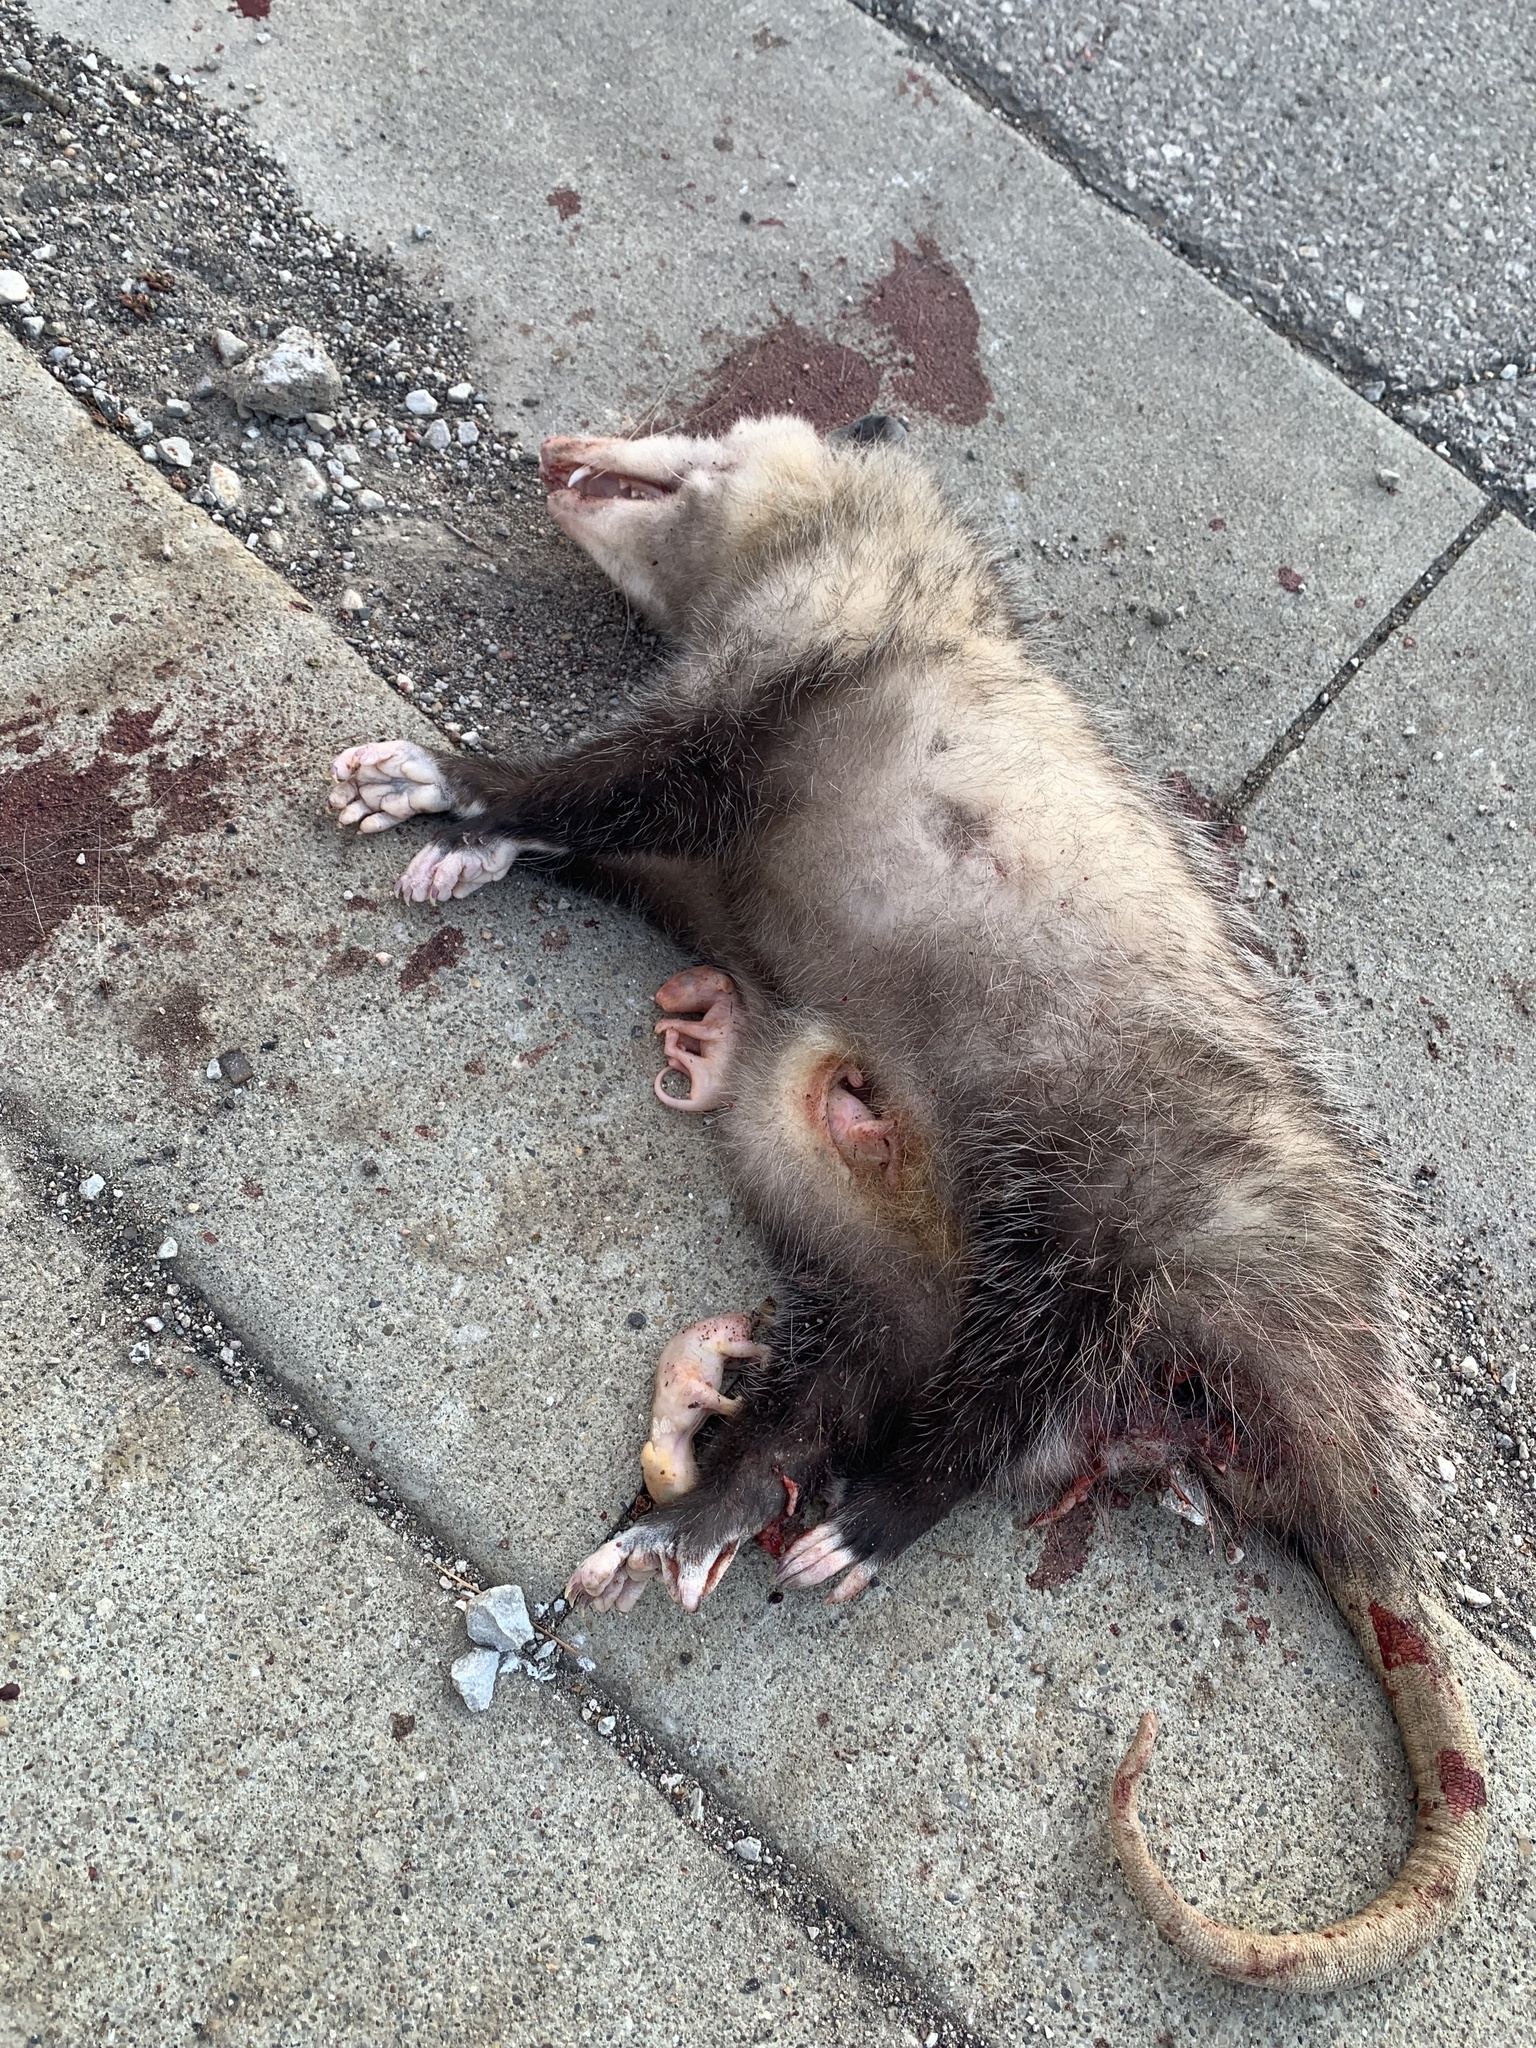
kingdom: Animalia
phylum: Chordata
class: Mammalia
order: Didelphimorphia
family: Didelphidae
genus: Didelphis
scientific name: Didelphis virginiana
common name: Virginia opossum
